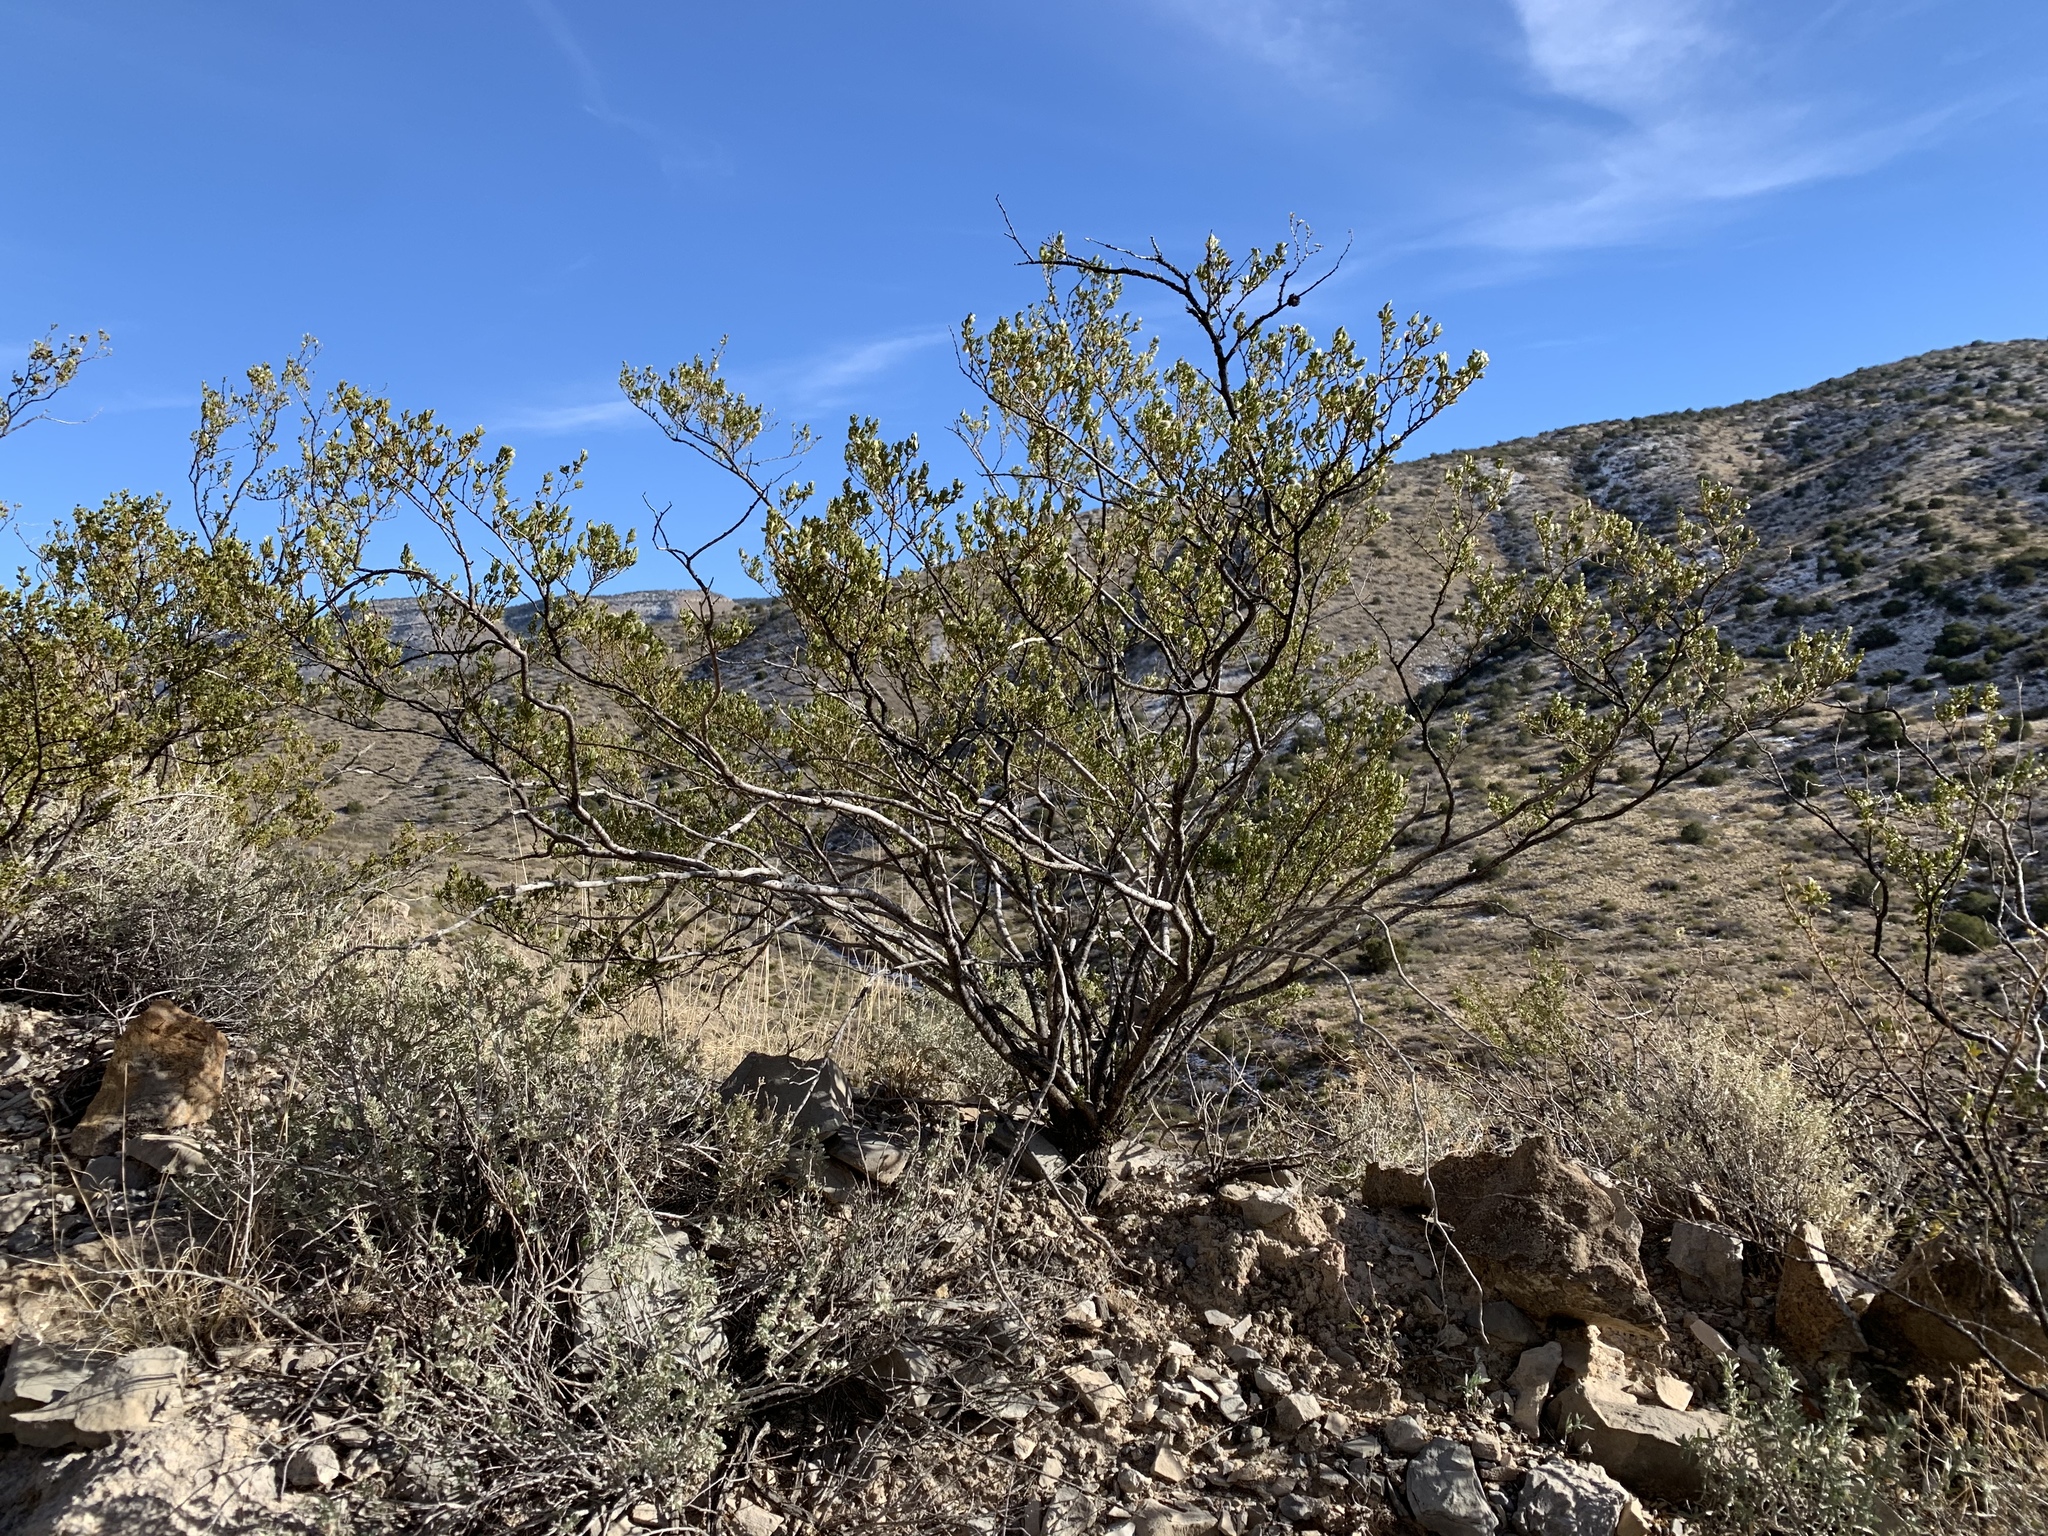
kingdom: Plantae
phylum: Tracheophyta
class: Magnoliopsida
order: Zygophyllales
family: Zygophyllaceae
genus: Larrea
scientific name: Larrea tridentata
